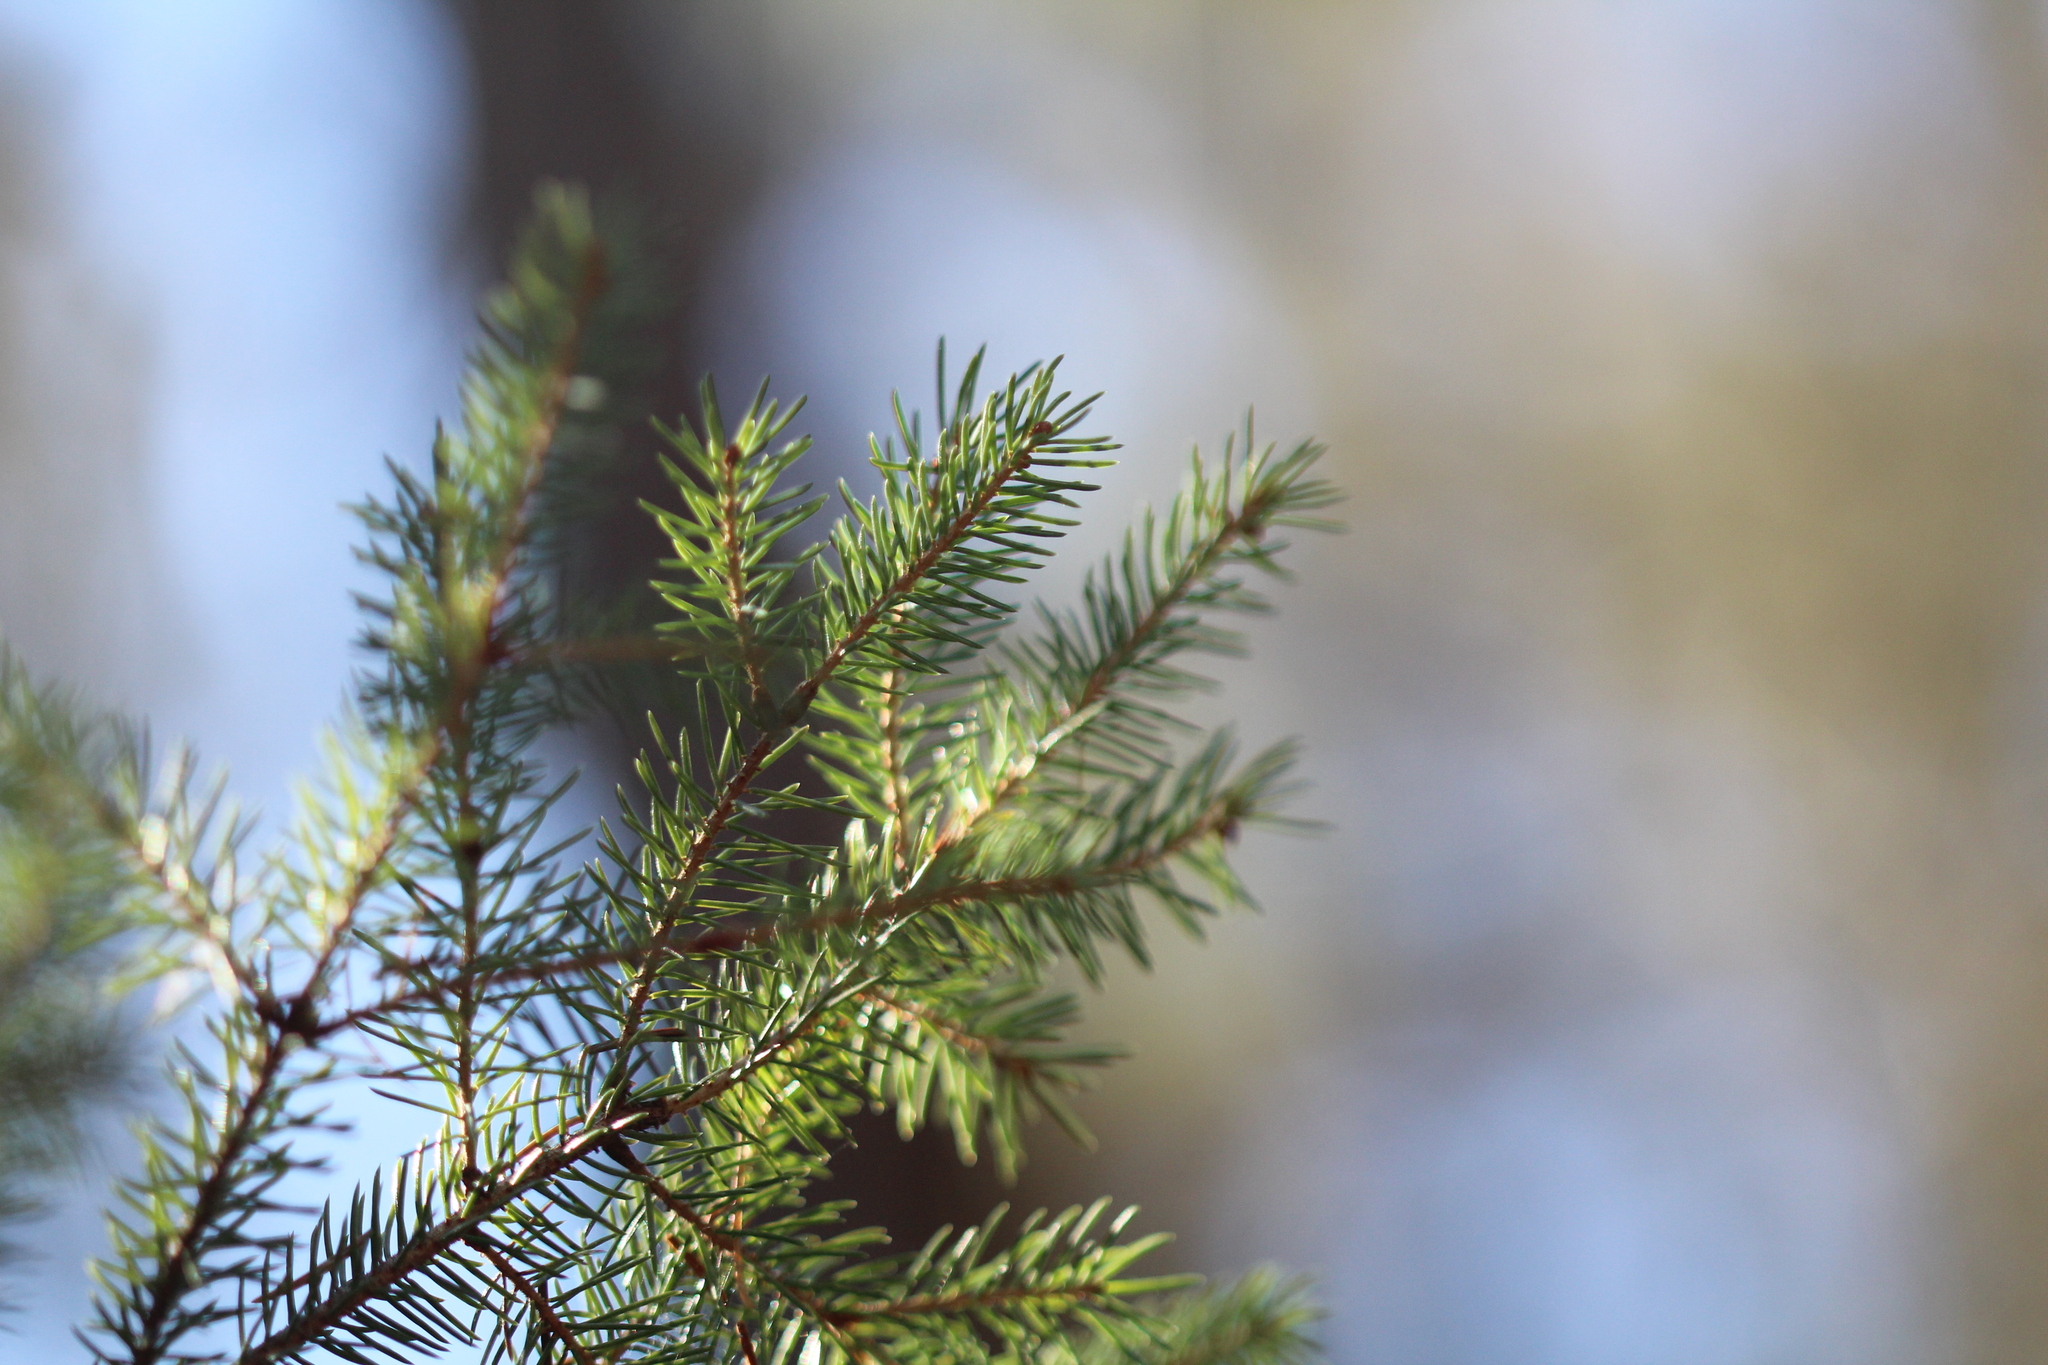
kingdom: Plantae
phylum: Tracheophyta
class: Pinopsida
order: Pinales
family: Pinaceae
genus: Picea
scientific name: Picea mariana
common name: Black spruce
